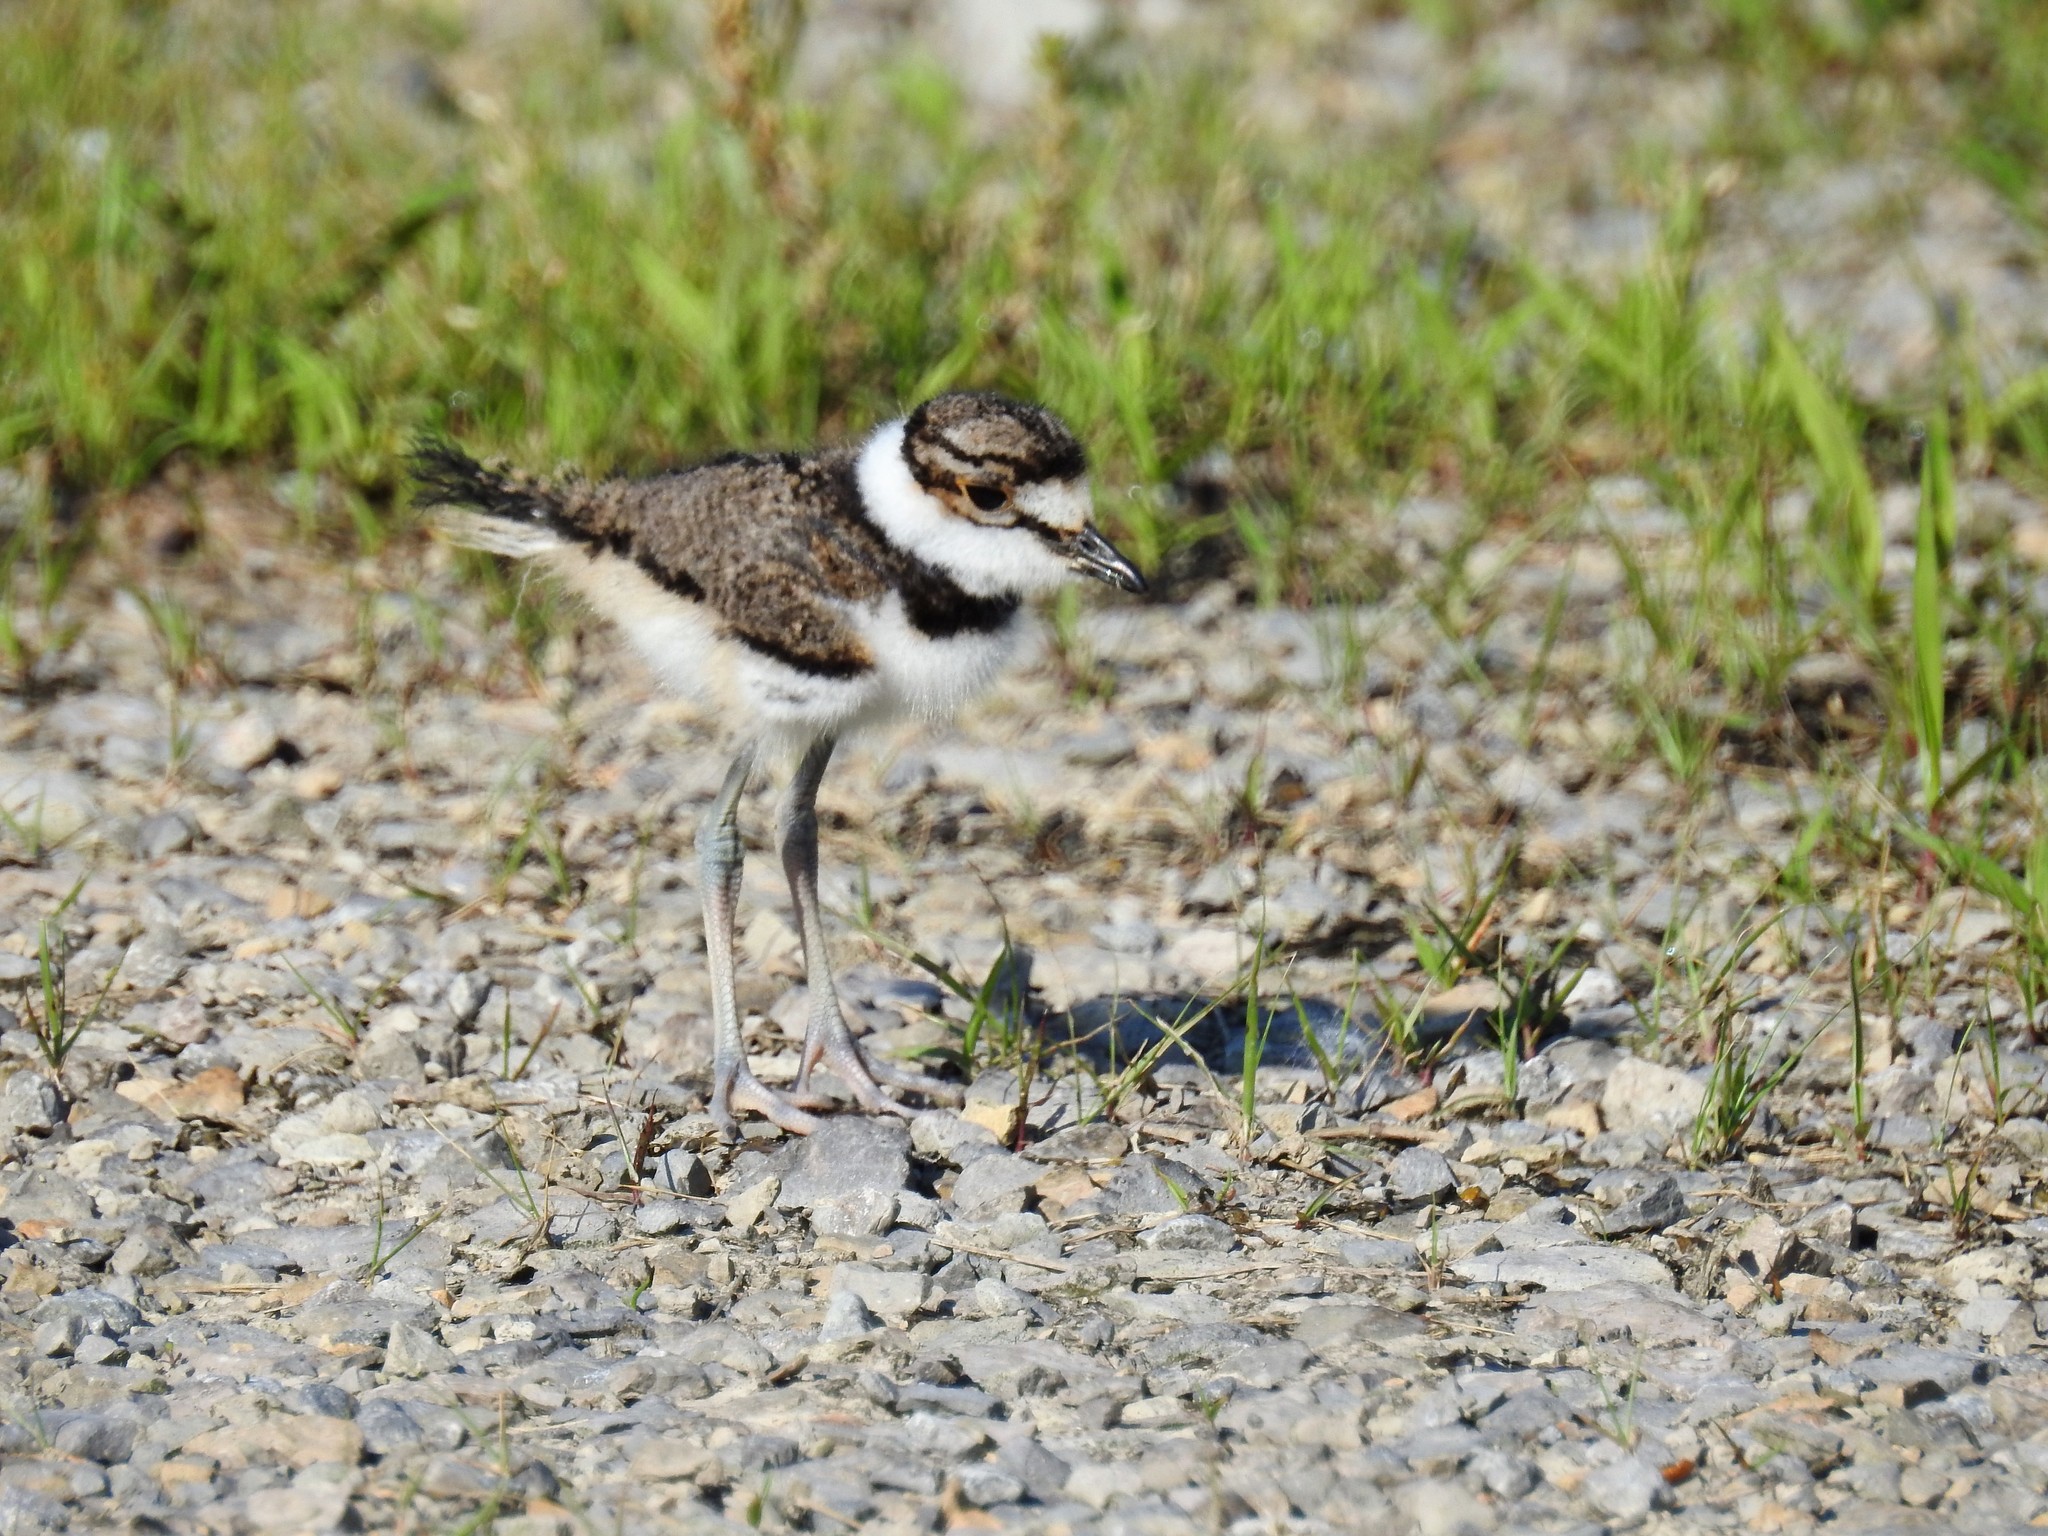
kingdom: Animalia
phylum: Chordata
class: Aves
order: Charadriiformes
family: Charadriidae
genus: Charadrius
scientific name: Charadrius vociferus
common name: Killdeer
